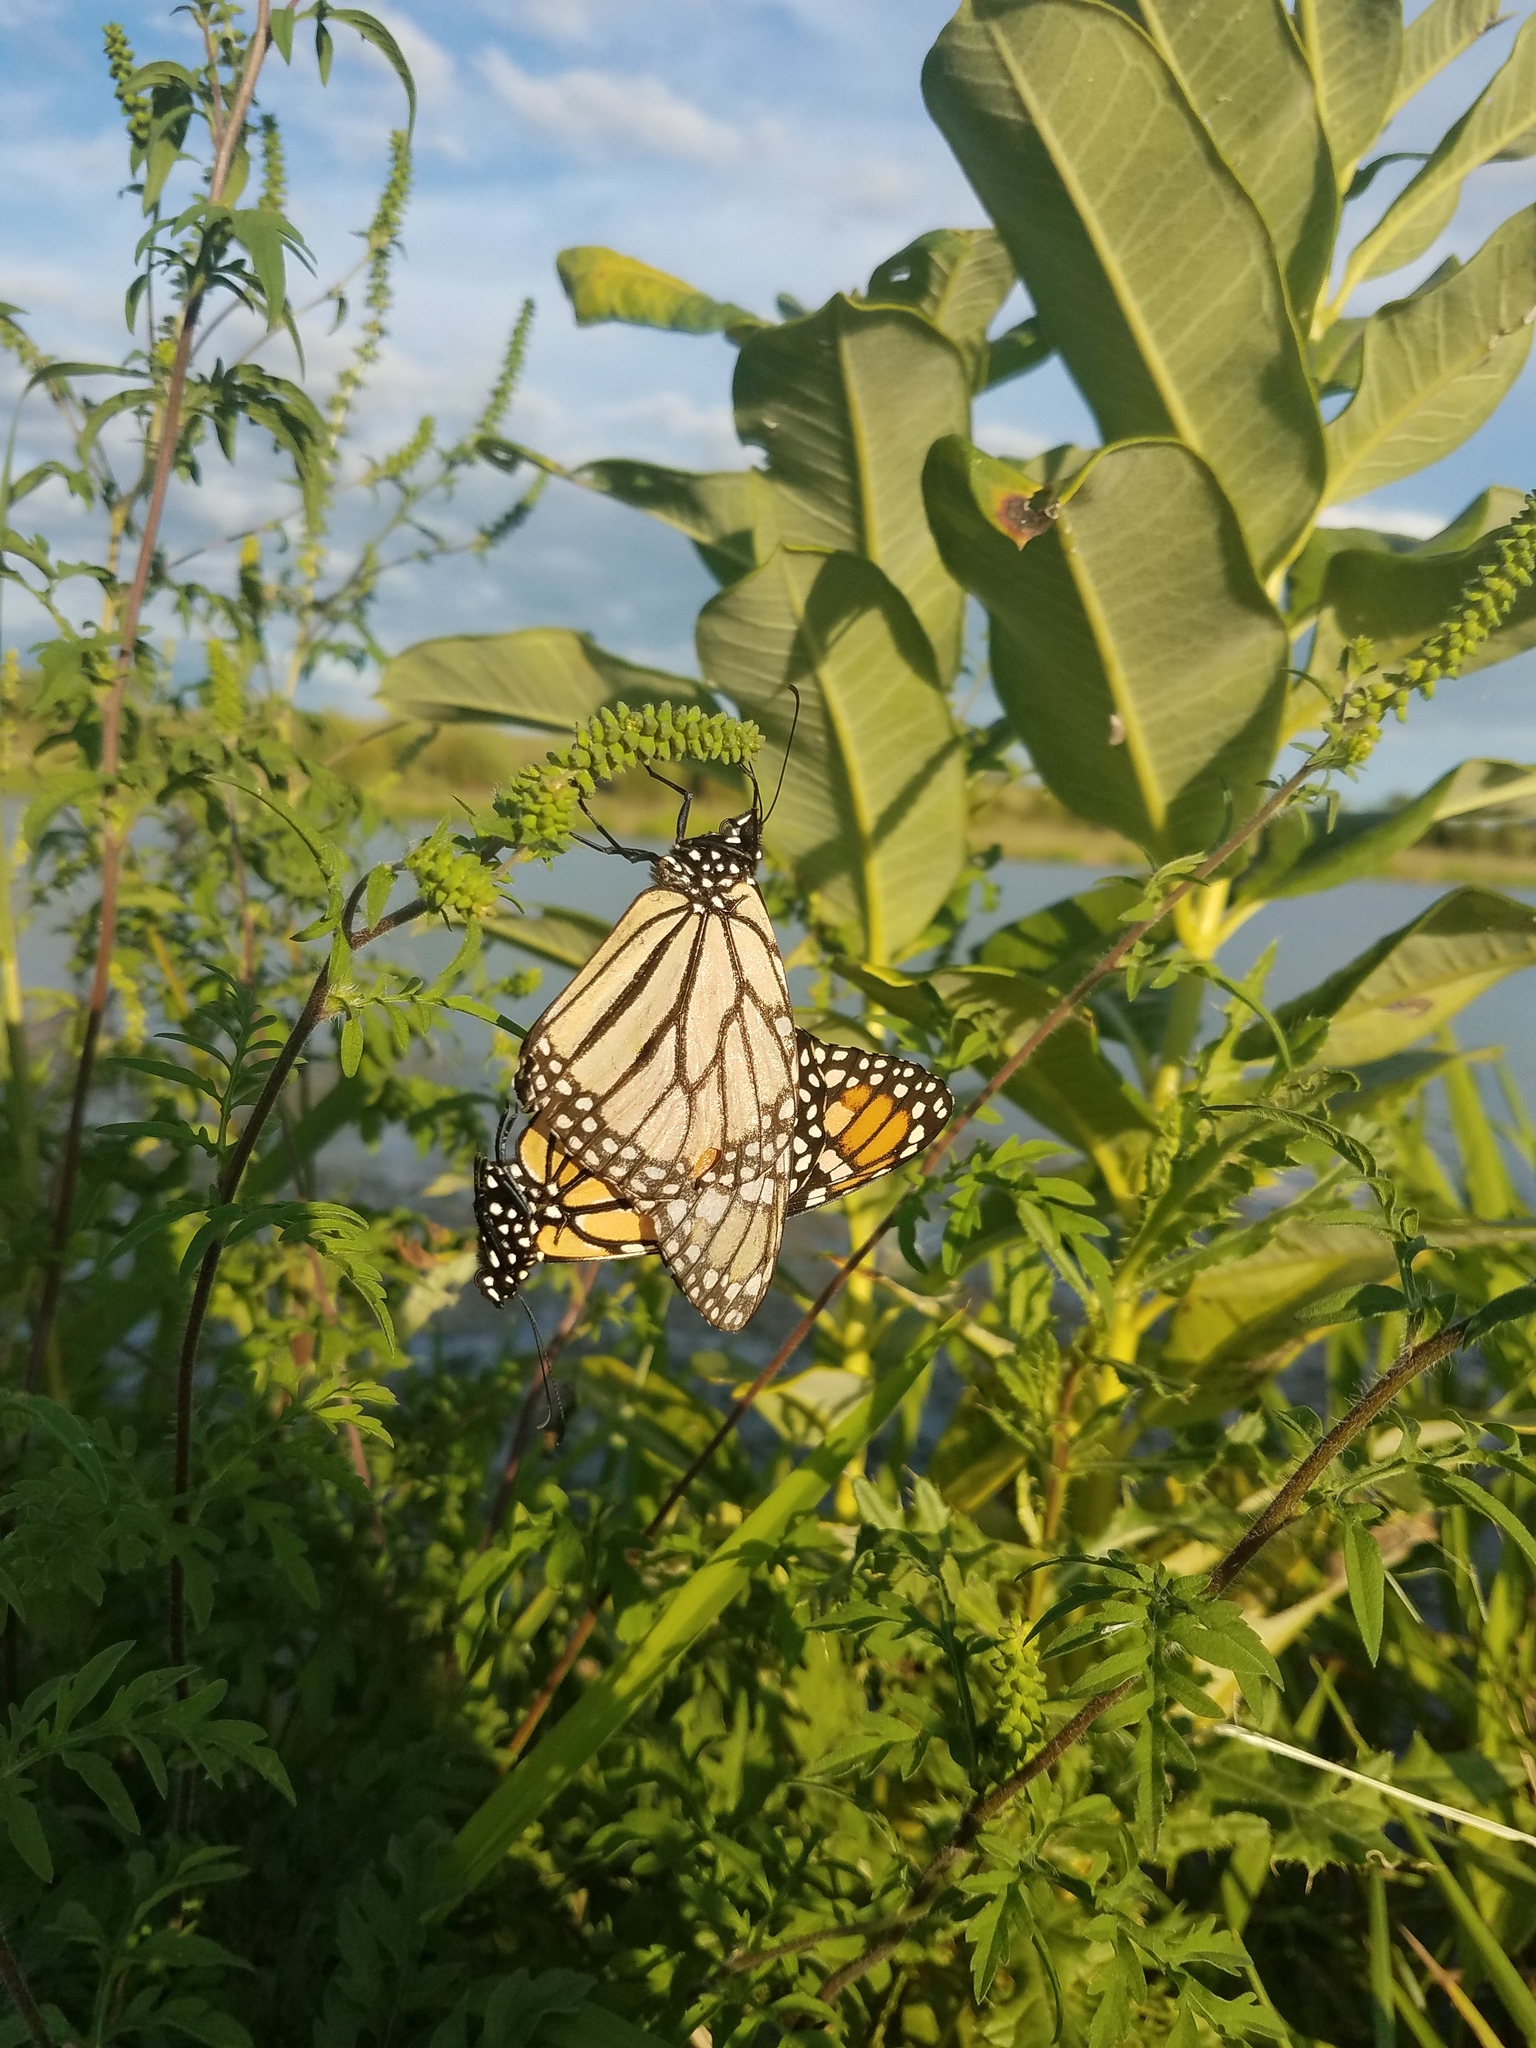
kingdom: Animalia
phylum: Arthropoda
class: Insecta
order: Lepidoptera
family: Nymphalidae
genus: Danaus
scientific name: Danaus plexippus
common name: Monarch
